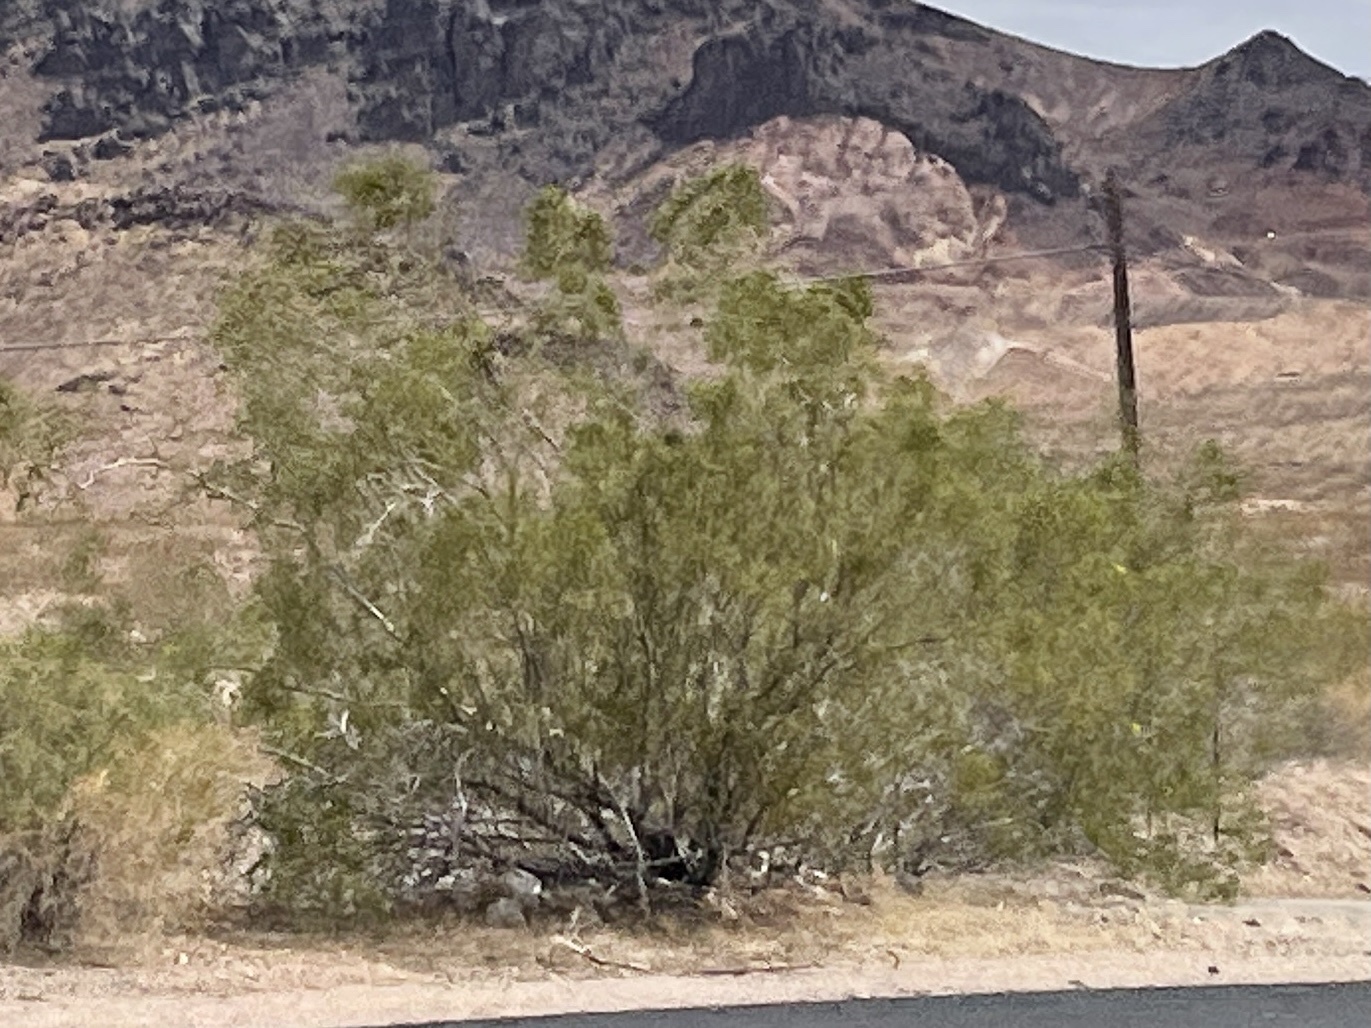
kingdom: Plantae
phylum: Tracheophyta
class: Magnoliopsida
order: Zygophyllales
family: Zygophyllaceae
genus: Larrea
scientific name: Larrea tridentata
